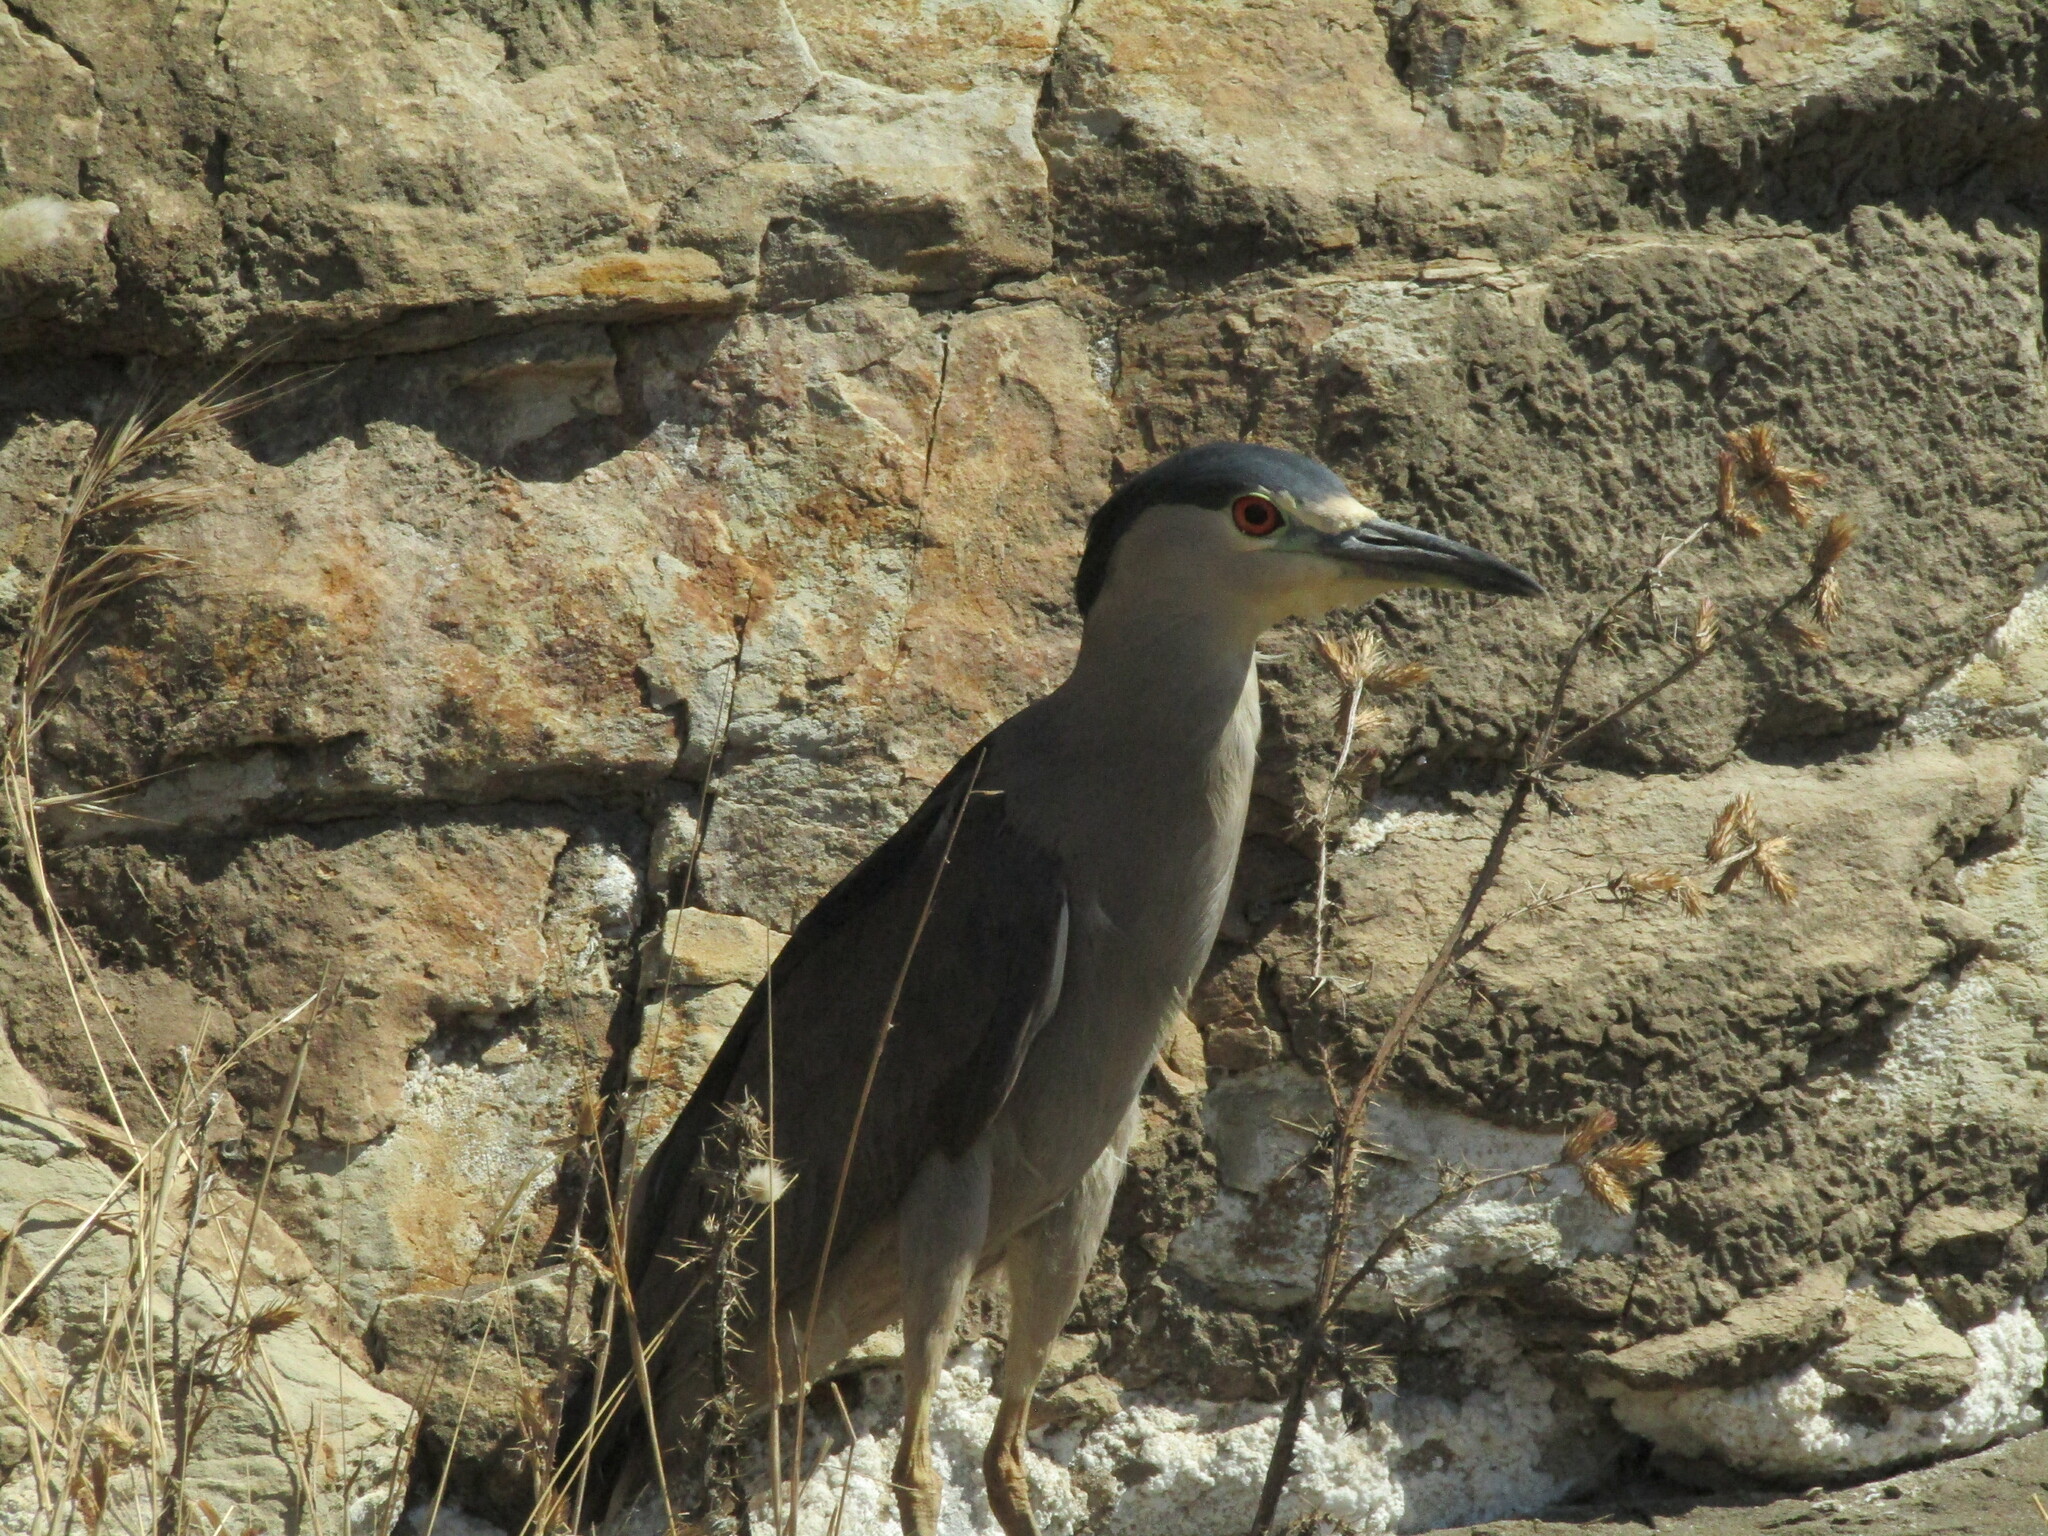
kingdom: Animalia
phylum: Chordata
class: Aves
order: Pelecaniformes
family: Ardeidae
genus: Nycticorax
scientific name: Nycticorax nycticorax
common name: Black-crowned night heron
